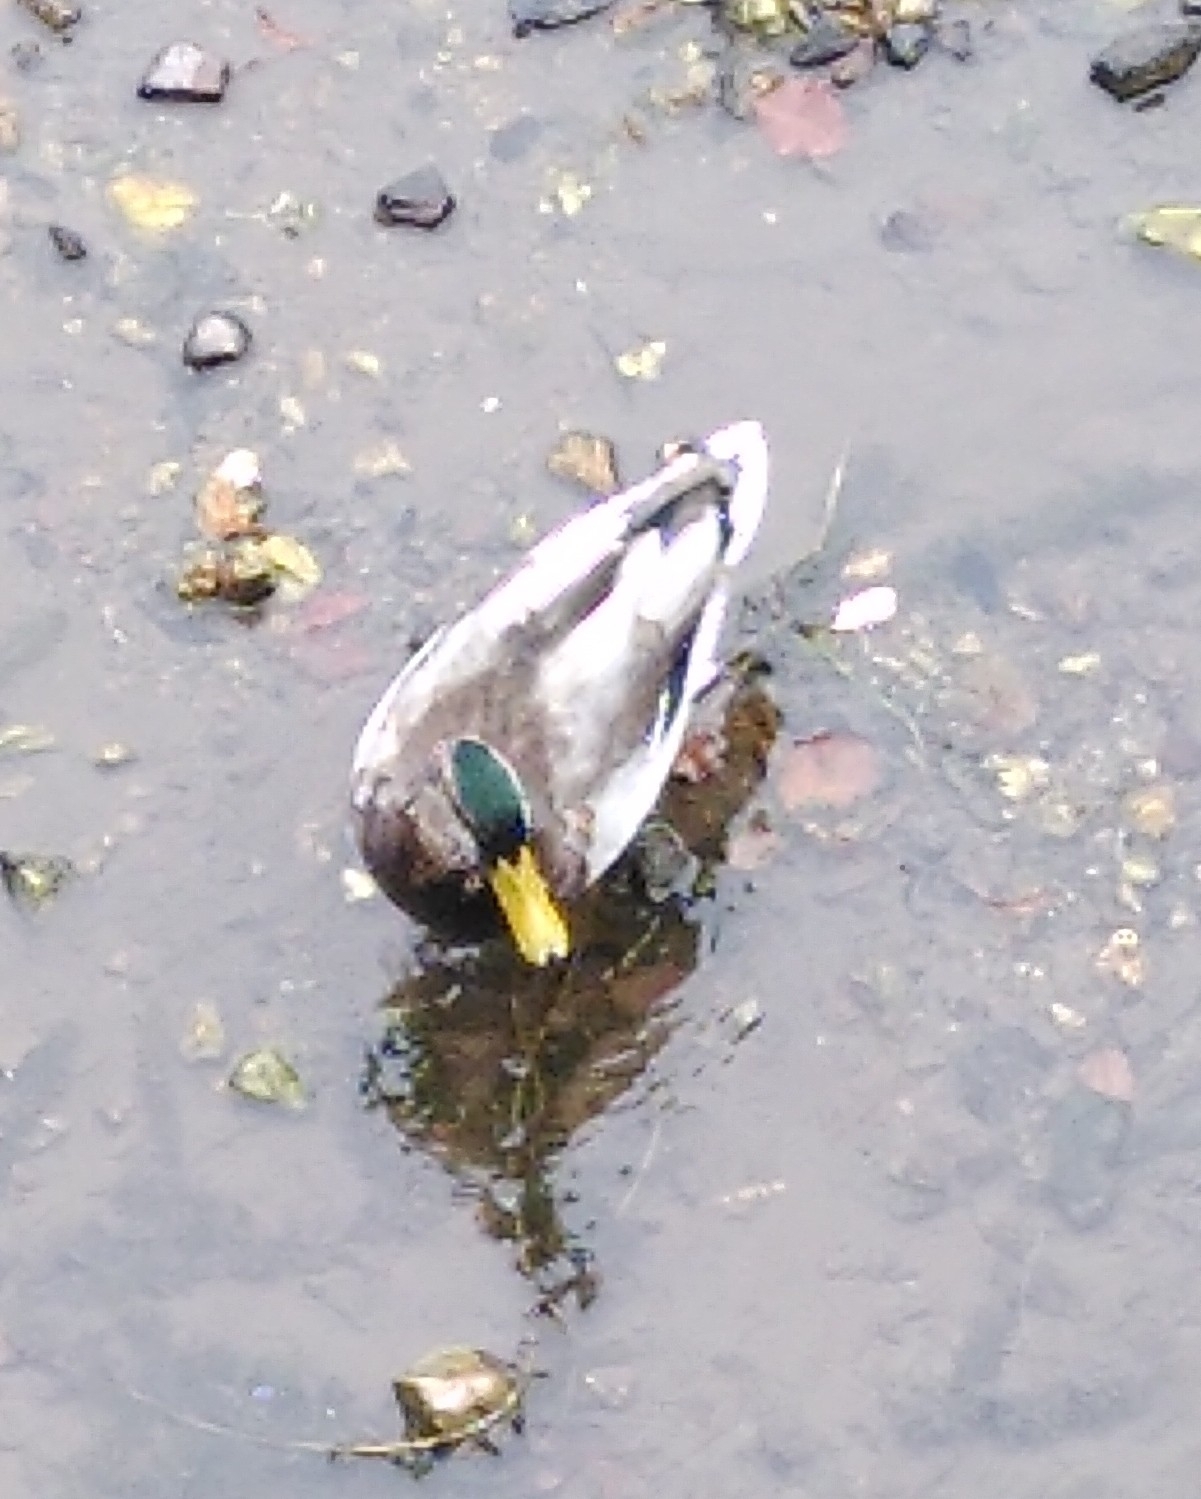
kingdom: Animalia
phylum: Chordata
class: Aves
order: Anseriformes
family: Anatidae
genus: Anas
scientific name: Anas platyrhynchos
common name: Mallard
